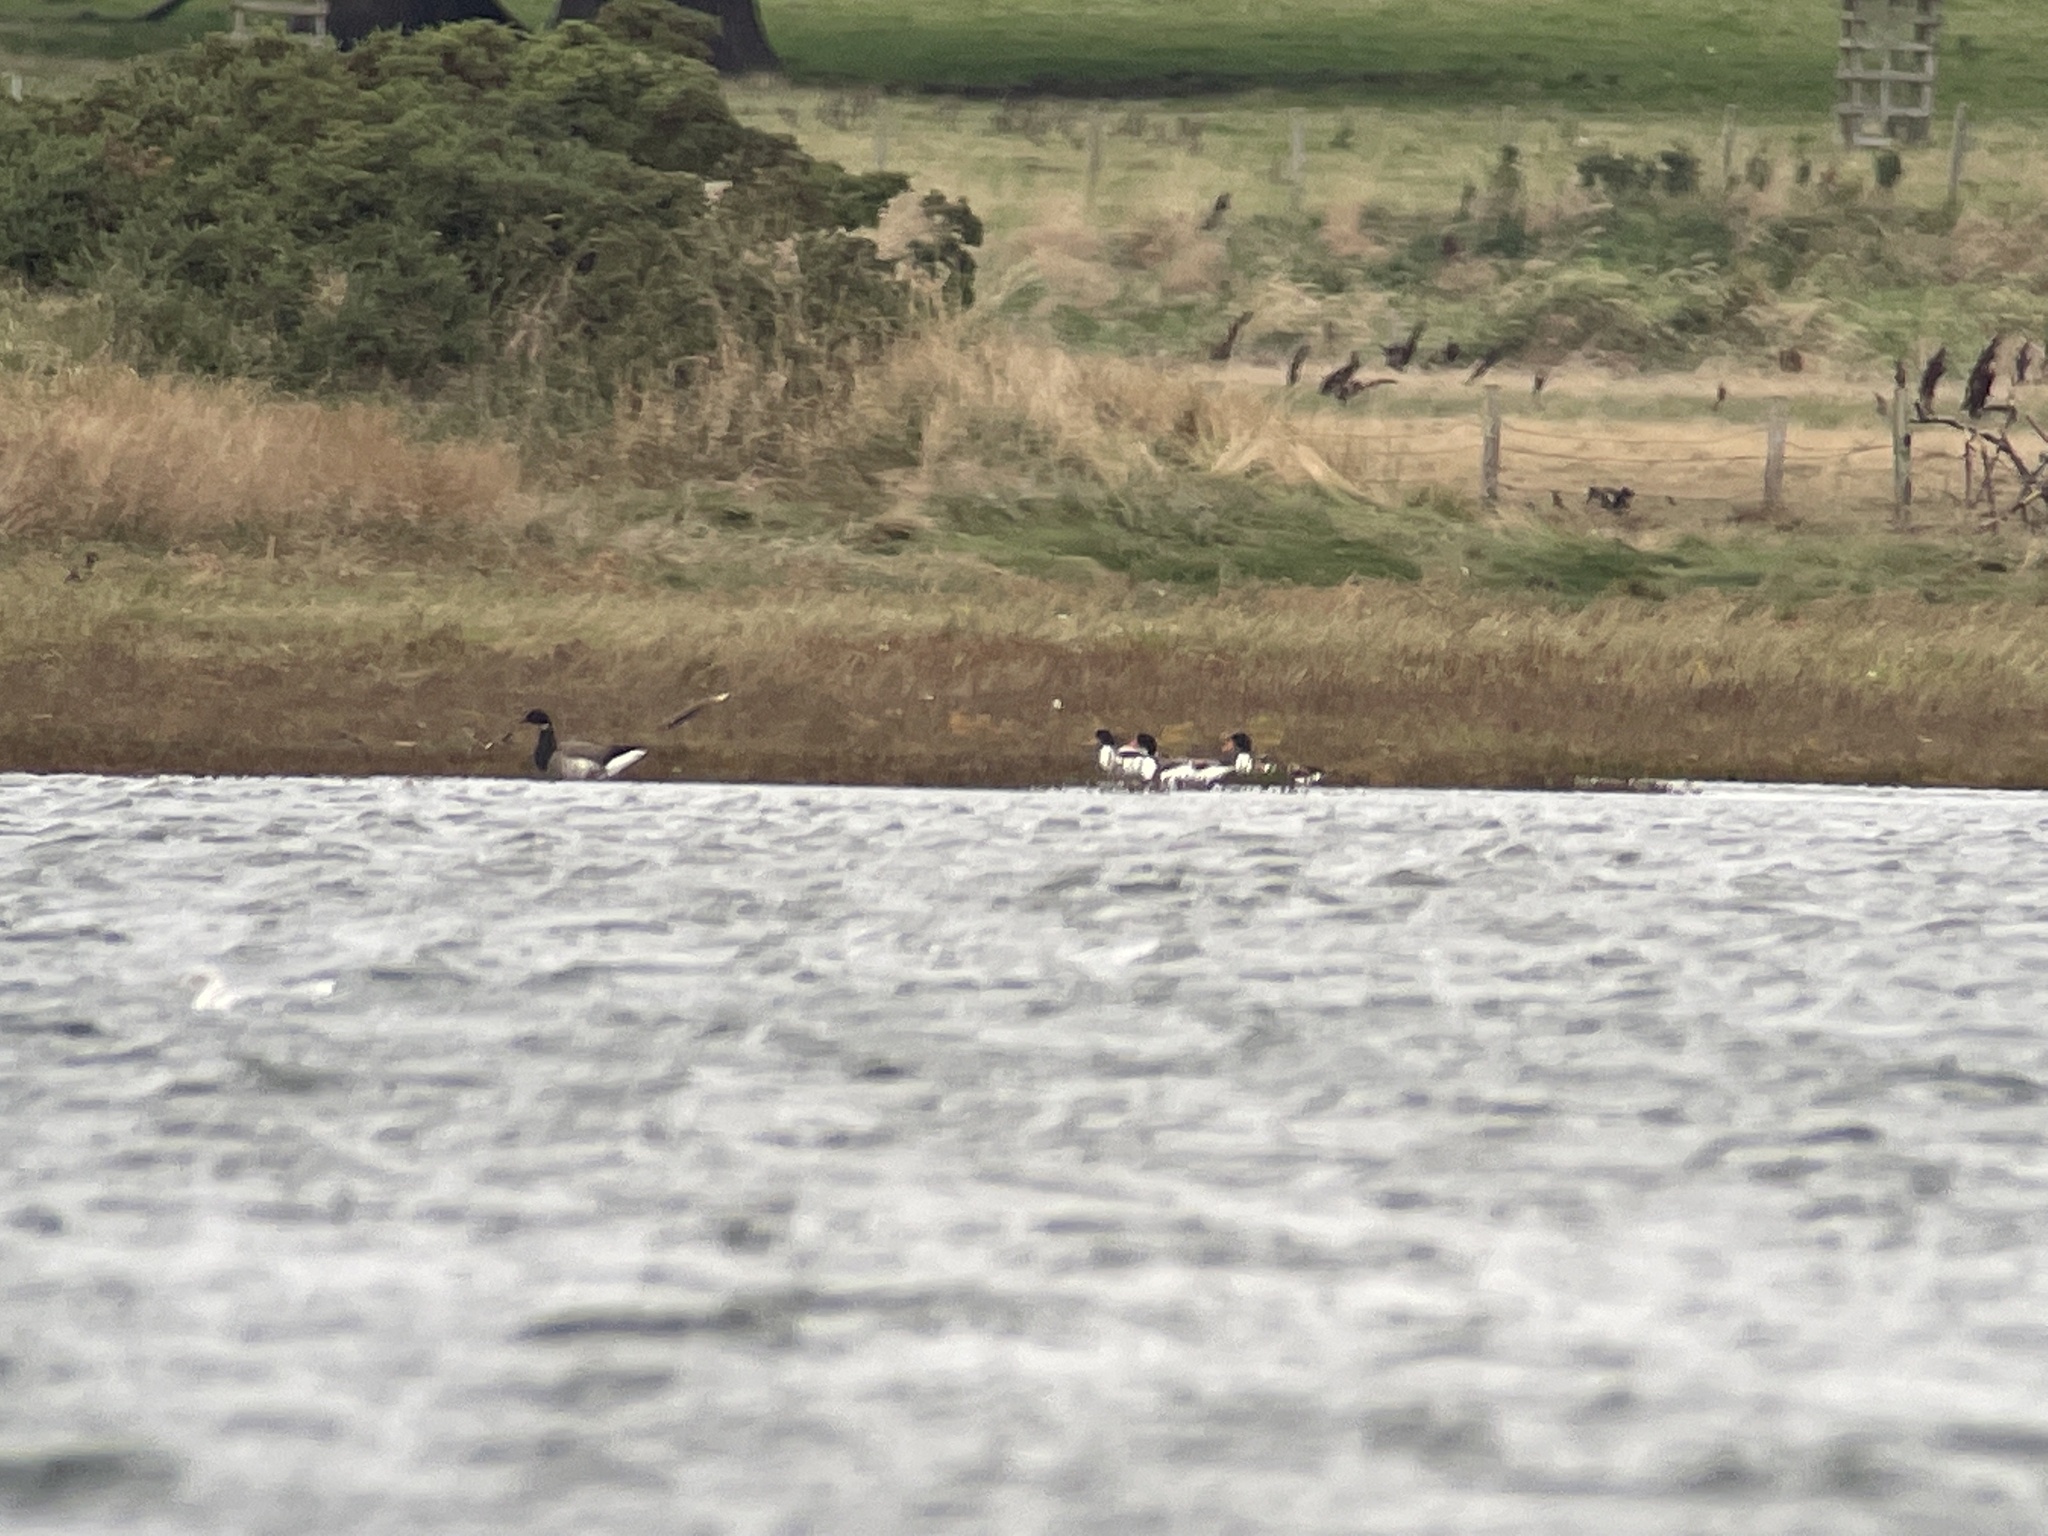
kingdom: Animalia
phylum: Chordata
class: Aves
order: Anseriformes
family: Anatidae
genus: Branta
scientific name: Branta bernicla
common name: Brant goose
